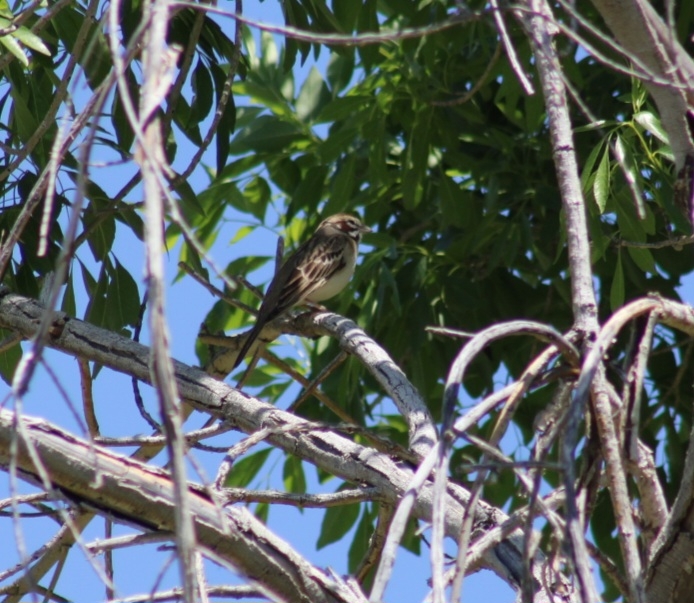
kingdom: Animalia
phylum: Chordata
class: Aves
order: Passeriformes
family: Passerellidae
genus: Chondestes
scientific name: Chondestes grammacus
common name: Lark sparrow
